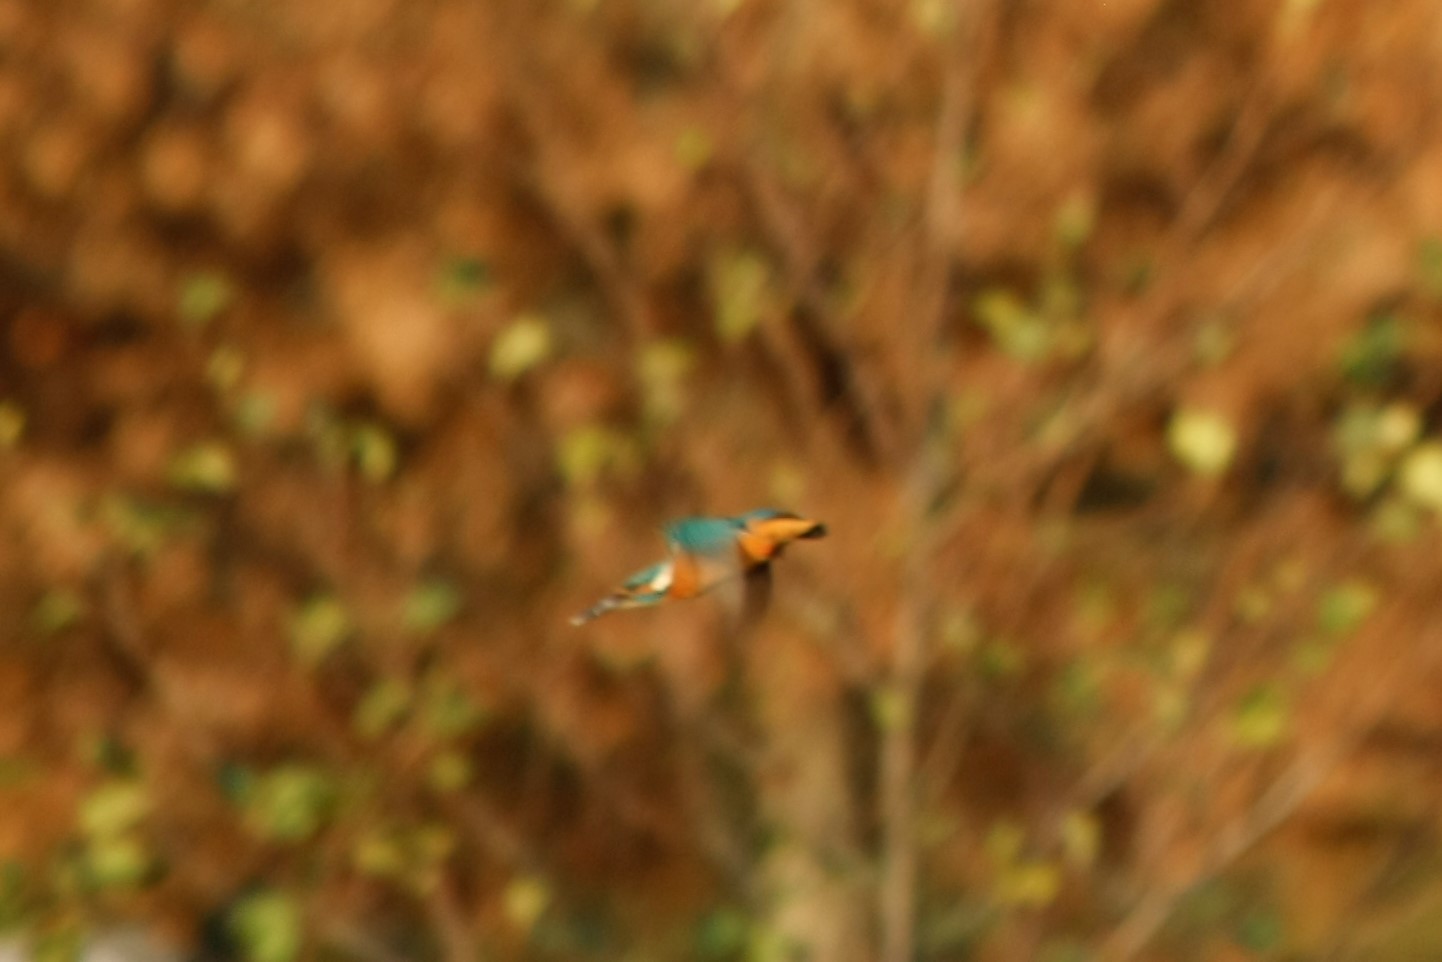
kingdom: Animalia
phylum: Chordata
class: Aves
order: Coraciiformes
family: Alcedinidae
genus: Alcedo
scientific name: Alcedo atthis
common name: Common kingfisher
